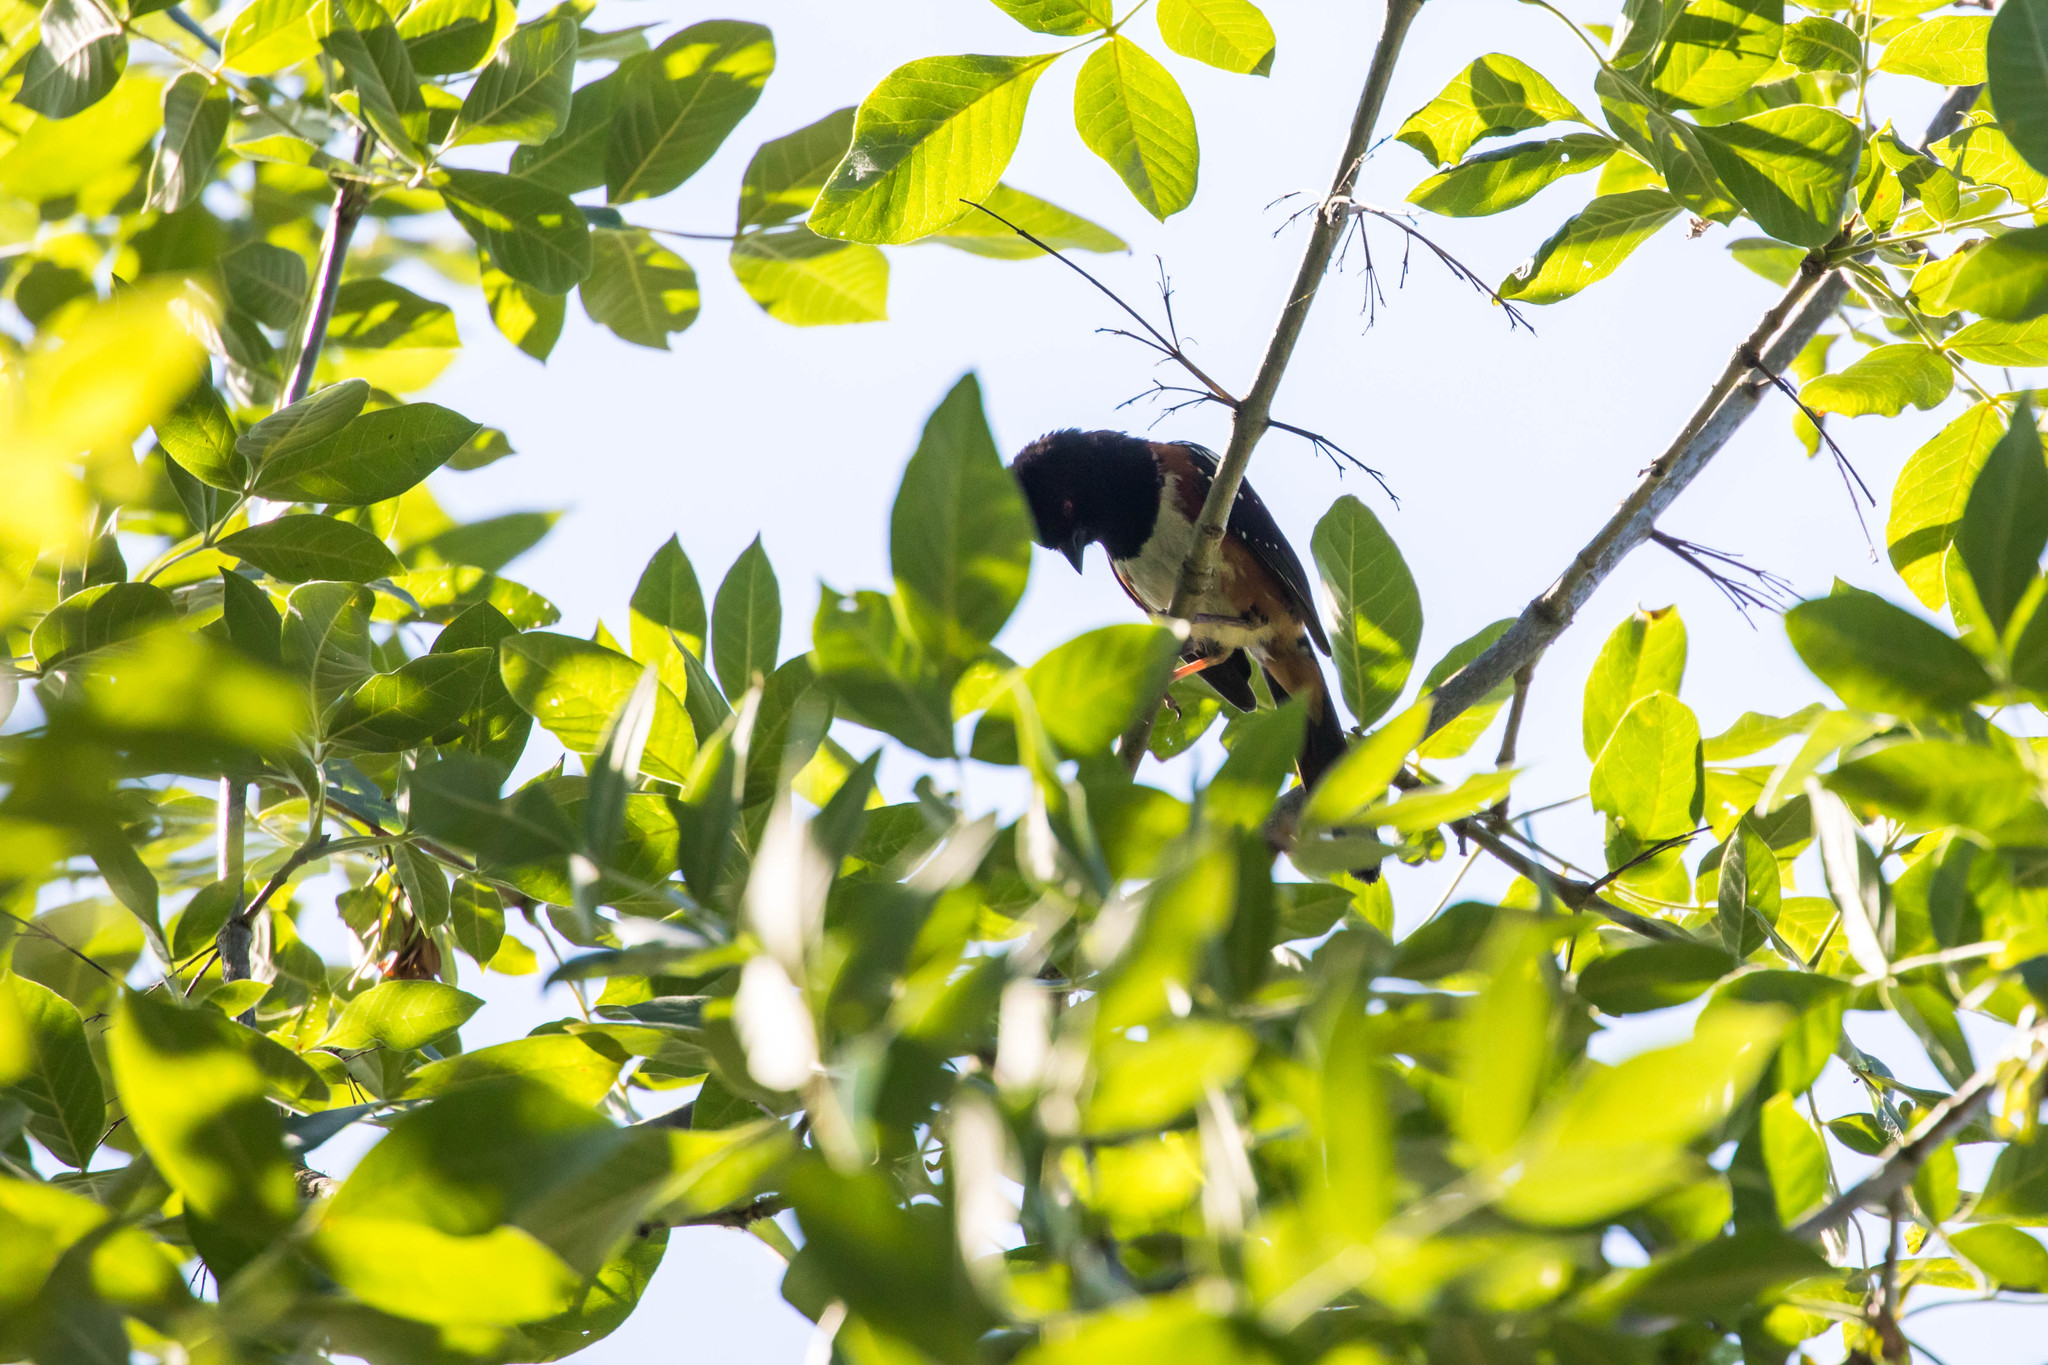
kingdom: Animalia
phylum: Chordata
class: Aves
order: Passeriformes
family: Passerellidae
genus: Pipilo
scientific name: Pipilo maculatus
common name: Spotted towhee
